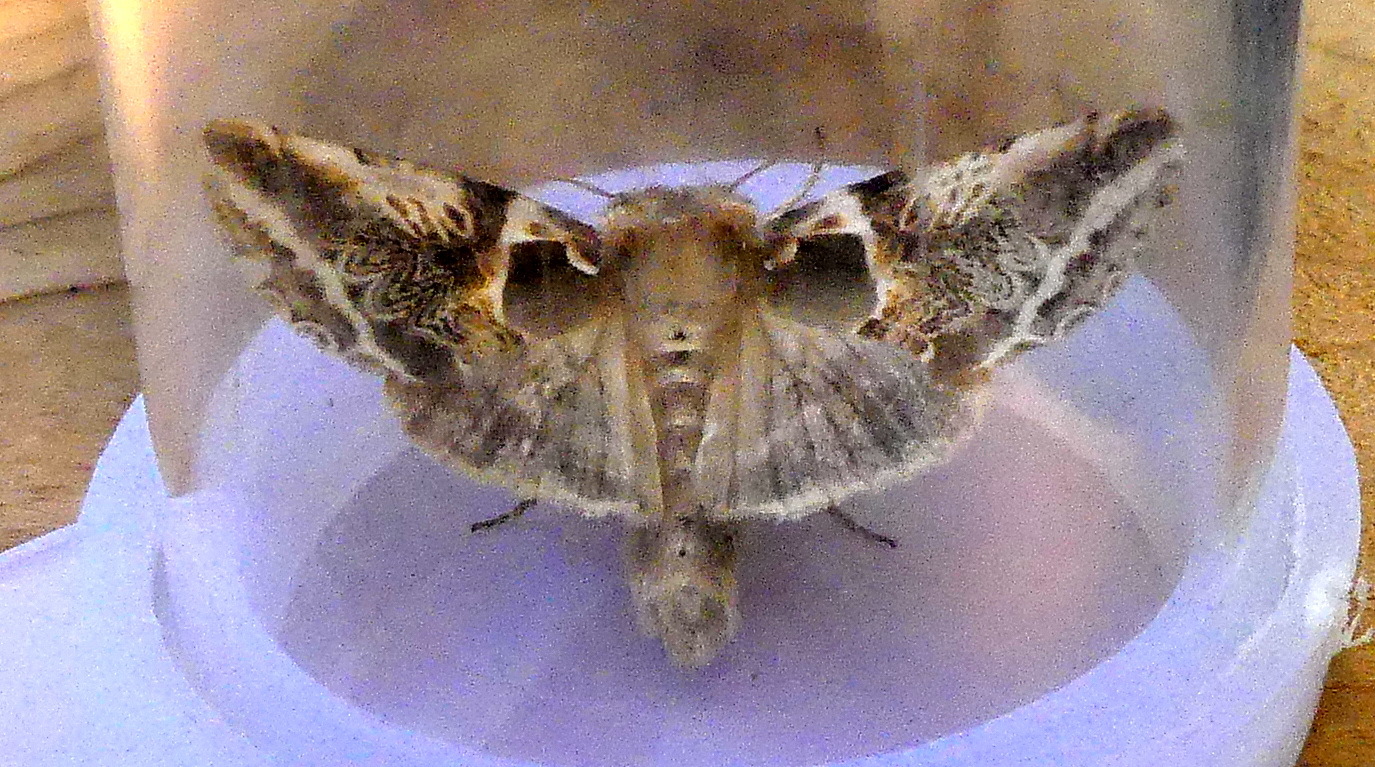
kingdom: Animalia
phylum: Arthropoda
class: Insecta
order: Lepidoptera
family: Drepanidae
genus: Habrosyne
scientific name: Habrosyne scripta
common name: Lettered habrosyne moth
